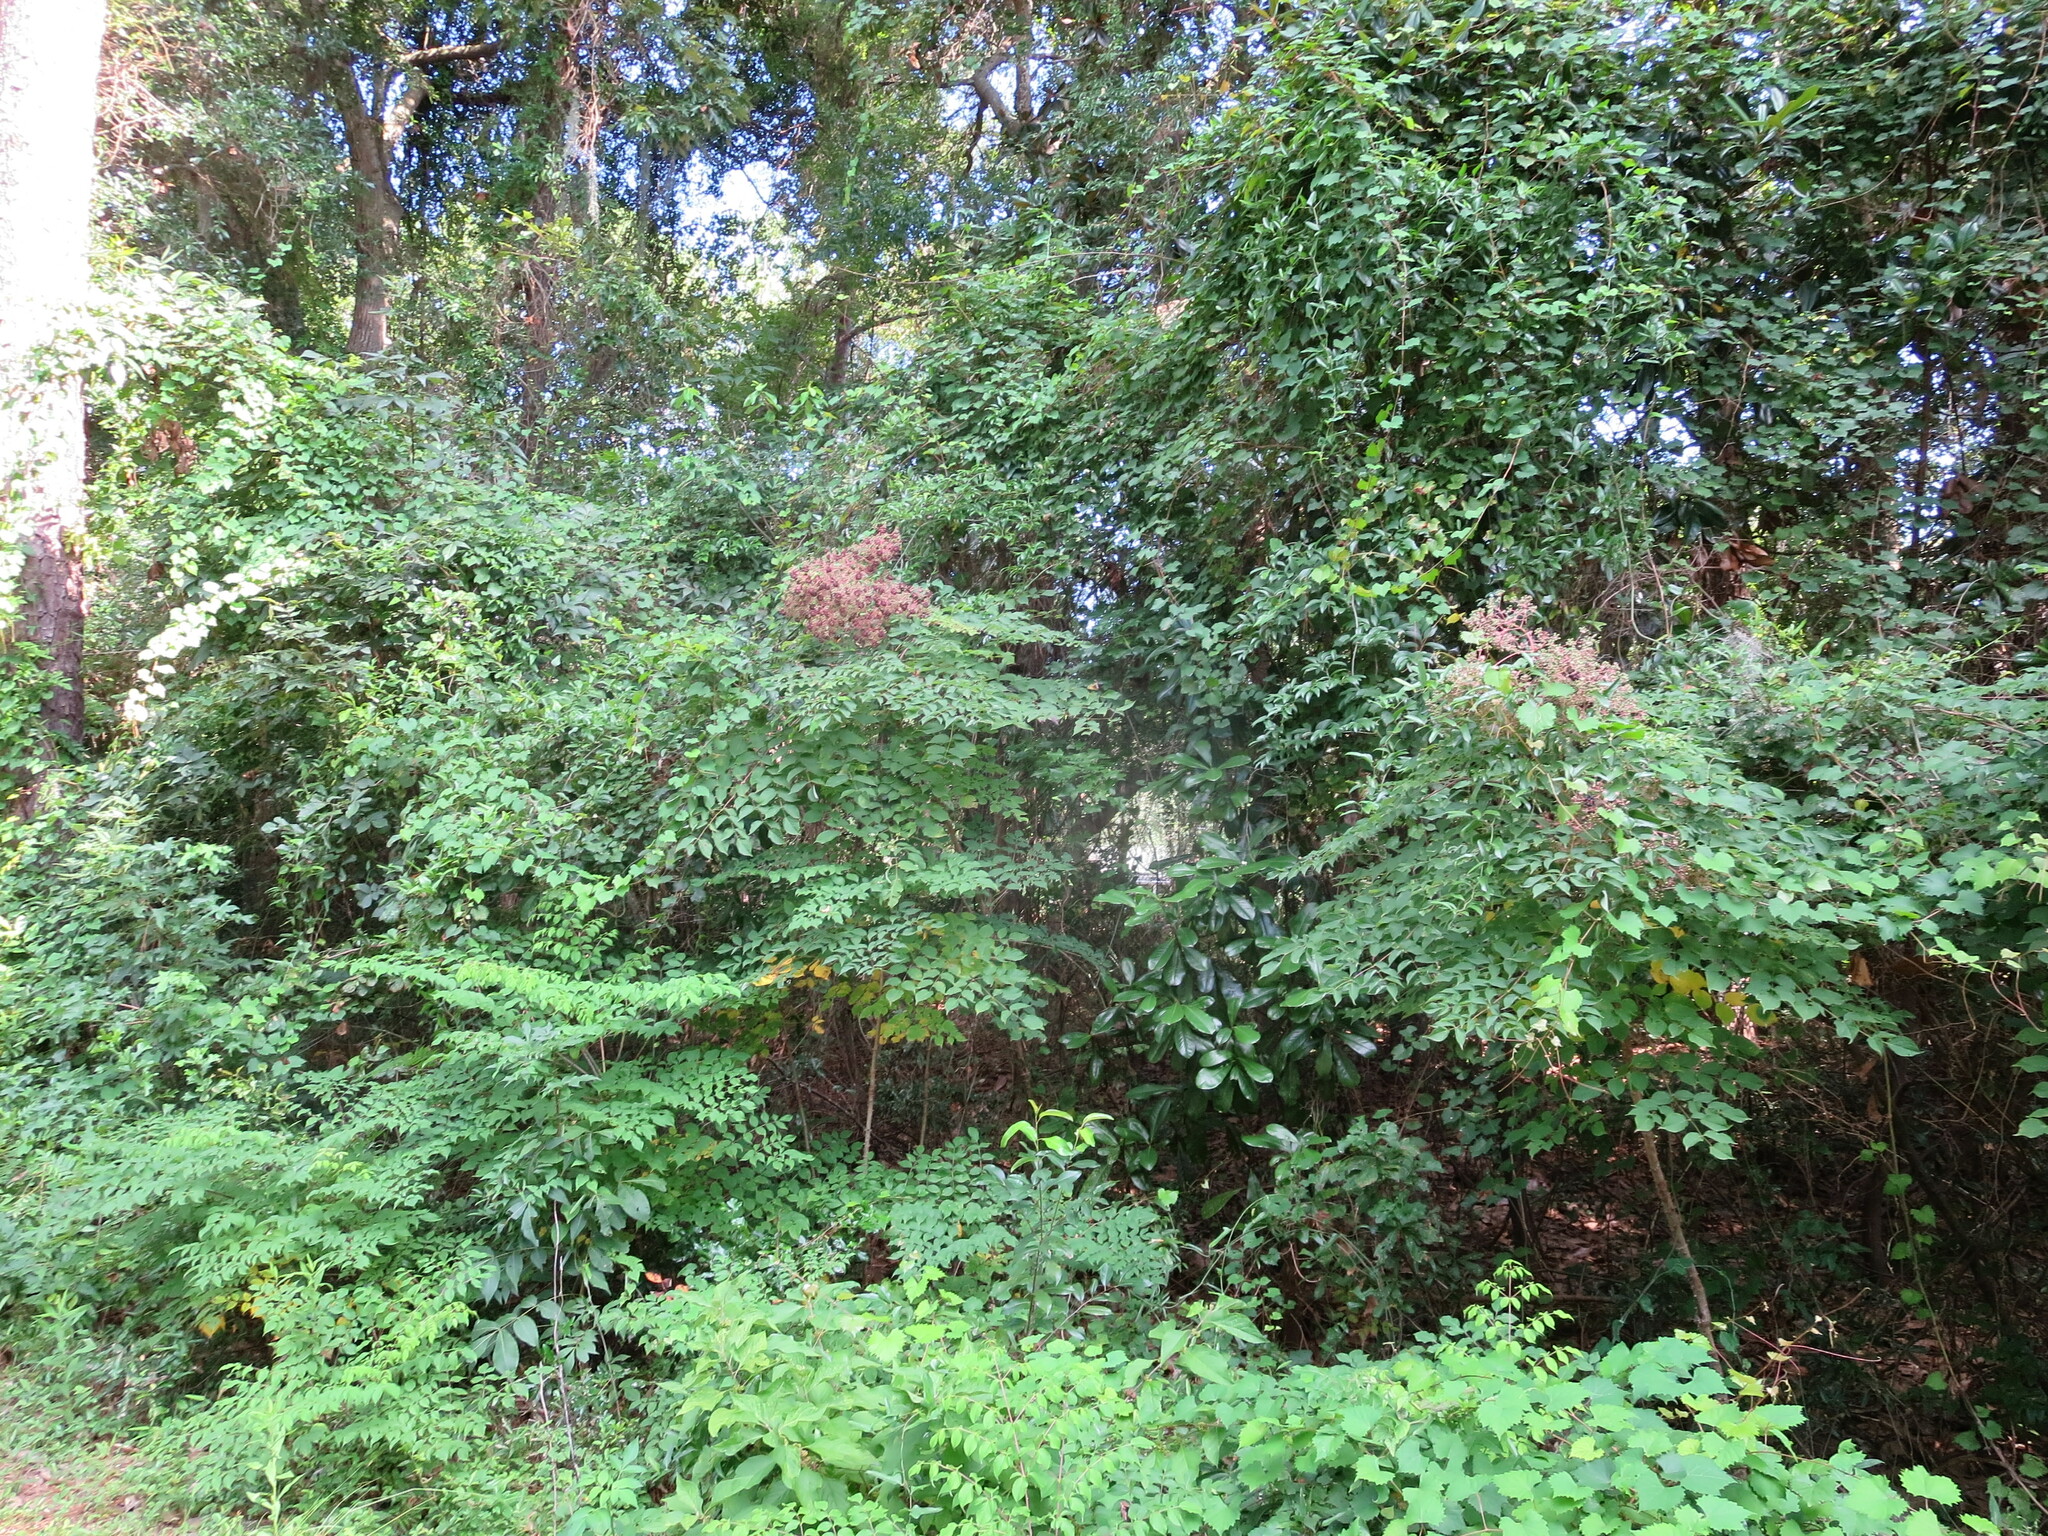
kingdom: Plantae
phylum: Tracheophyta
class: Magnoliopsida
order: Apiales
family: Araliaceae
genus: Aralia
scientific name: Aralia spinosa
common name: Hercules'-club
